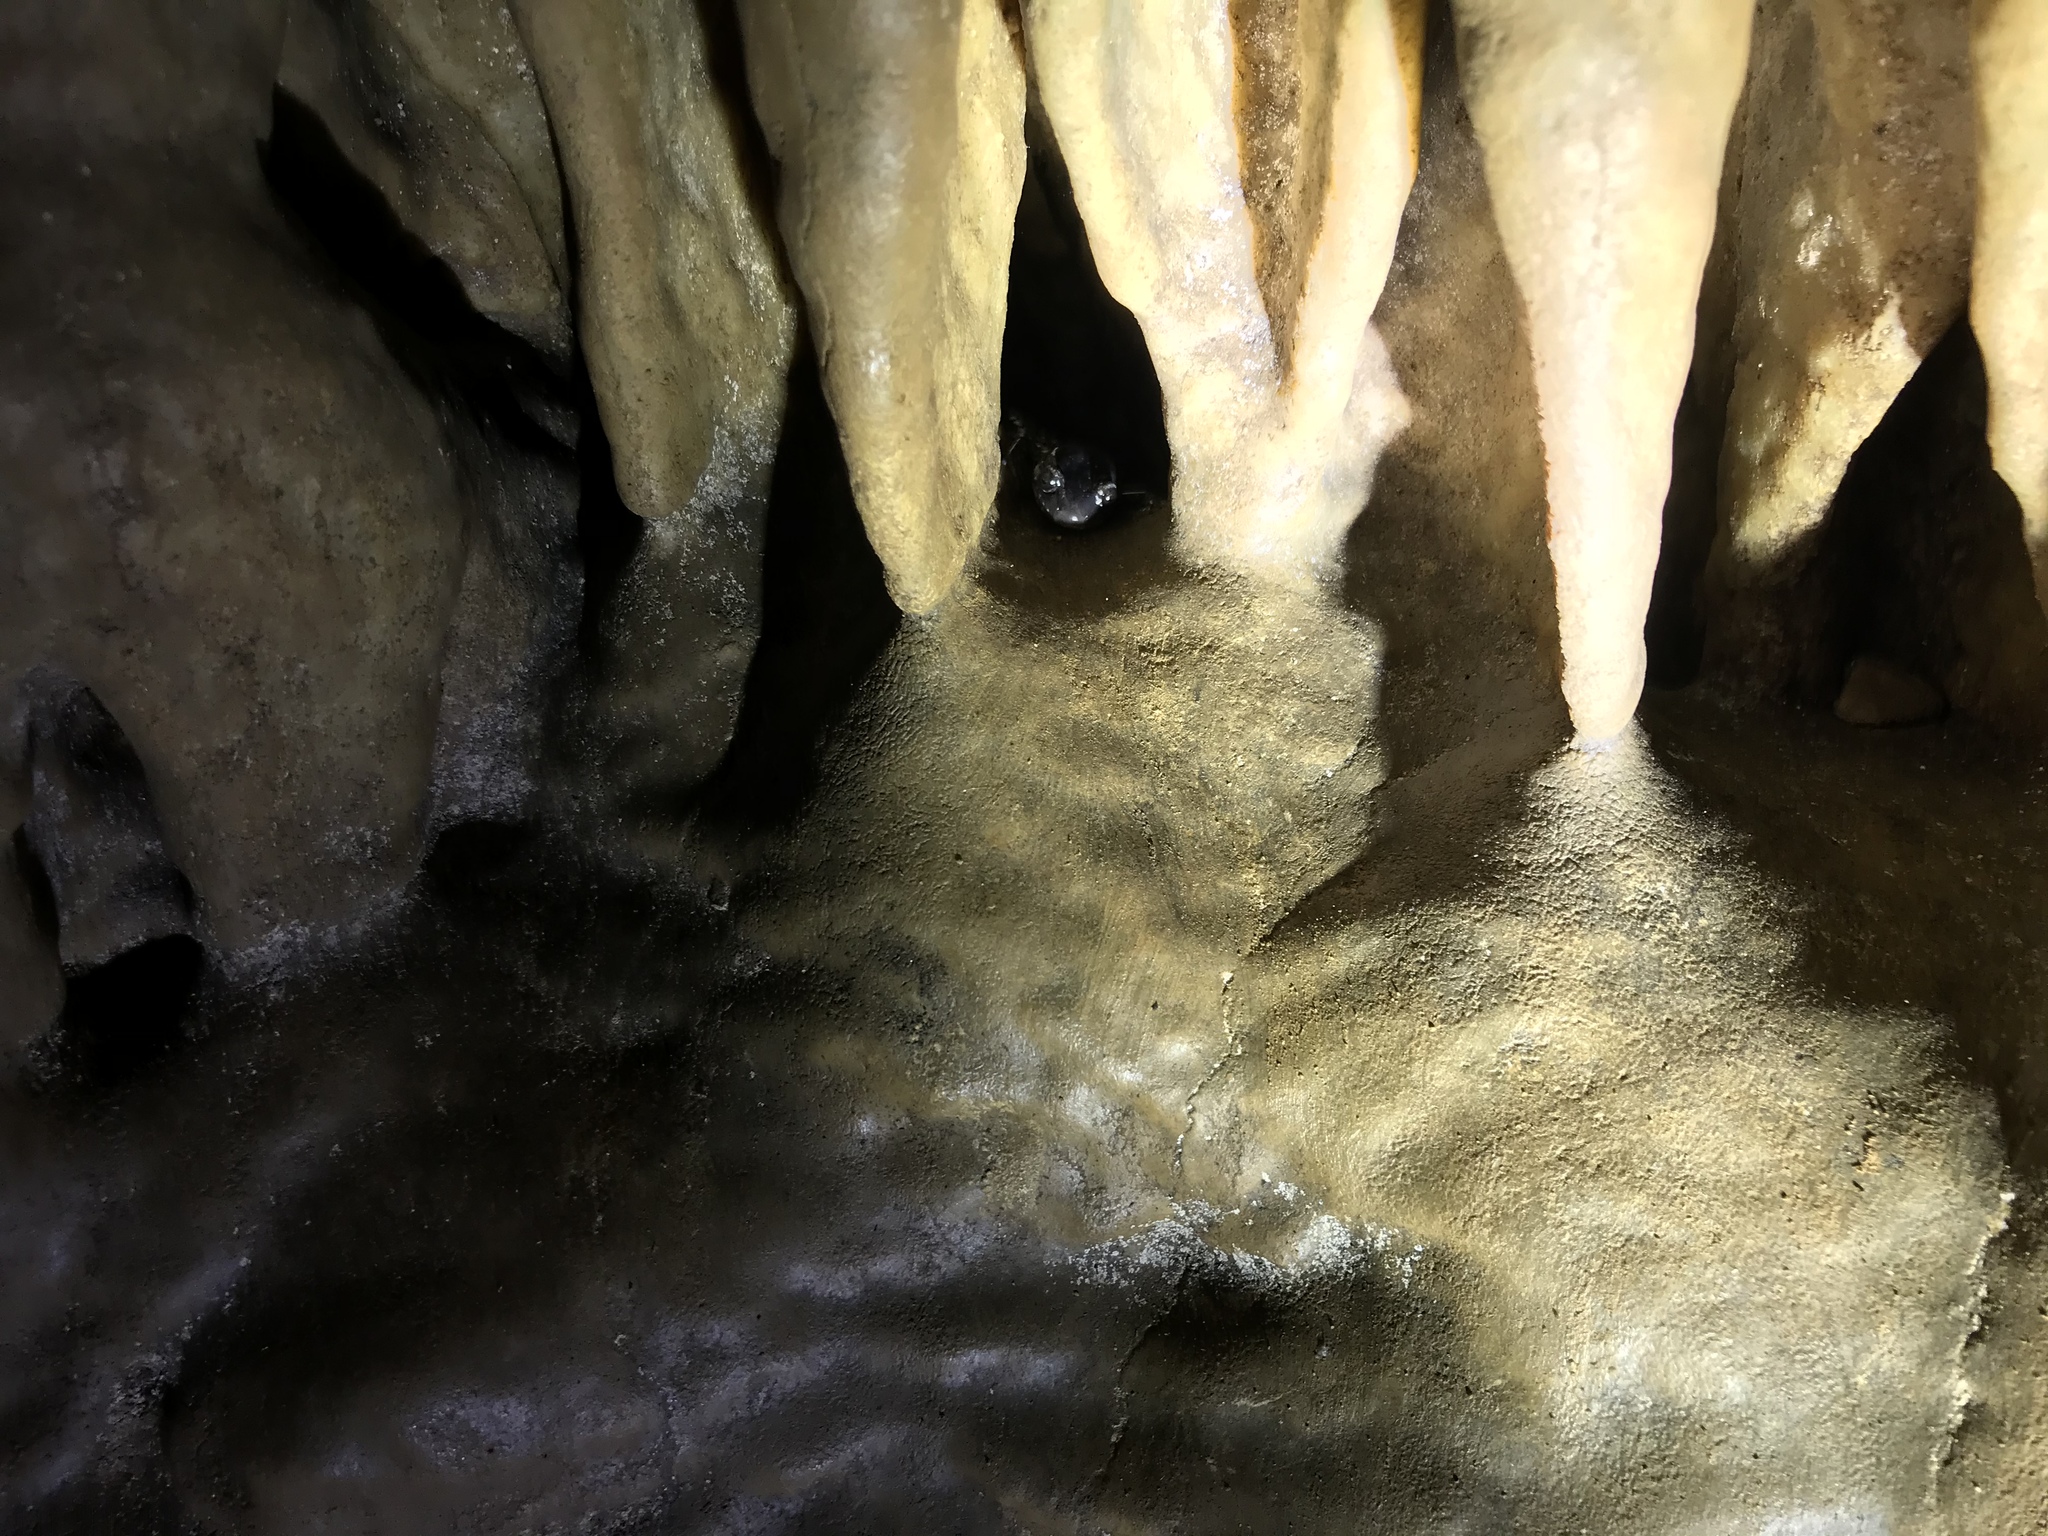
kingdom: Animalia
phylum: Chordata
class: Amphibia
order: Caudata
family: Plethodontidae
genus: Plethodon
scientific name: Plethodon glutinosus
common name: Northern slimy salamander
